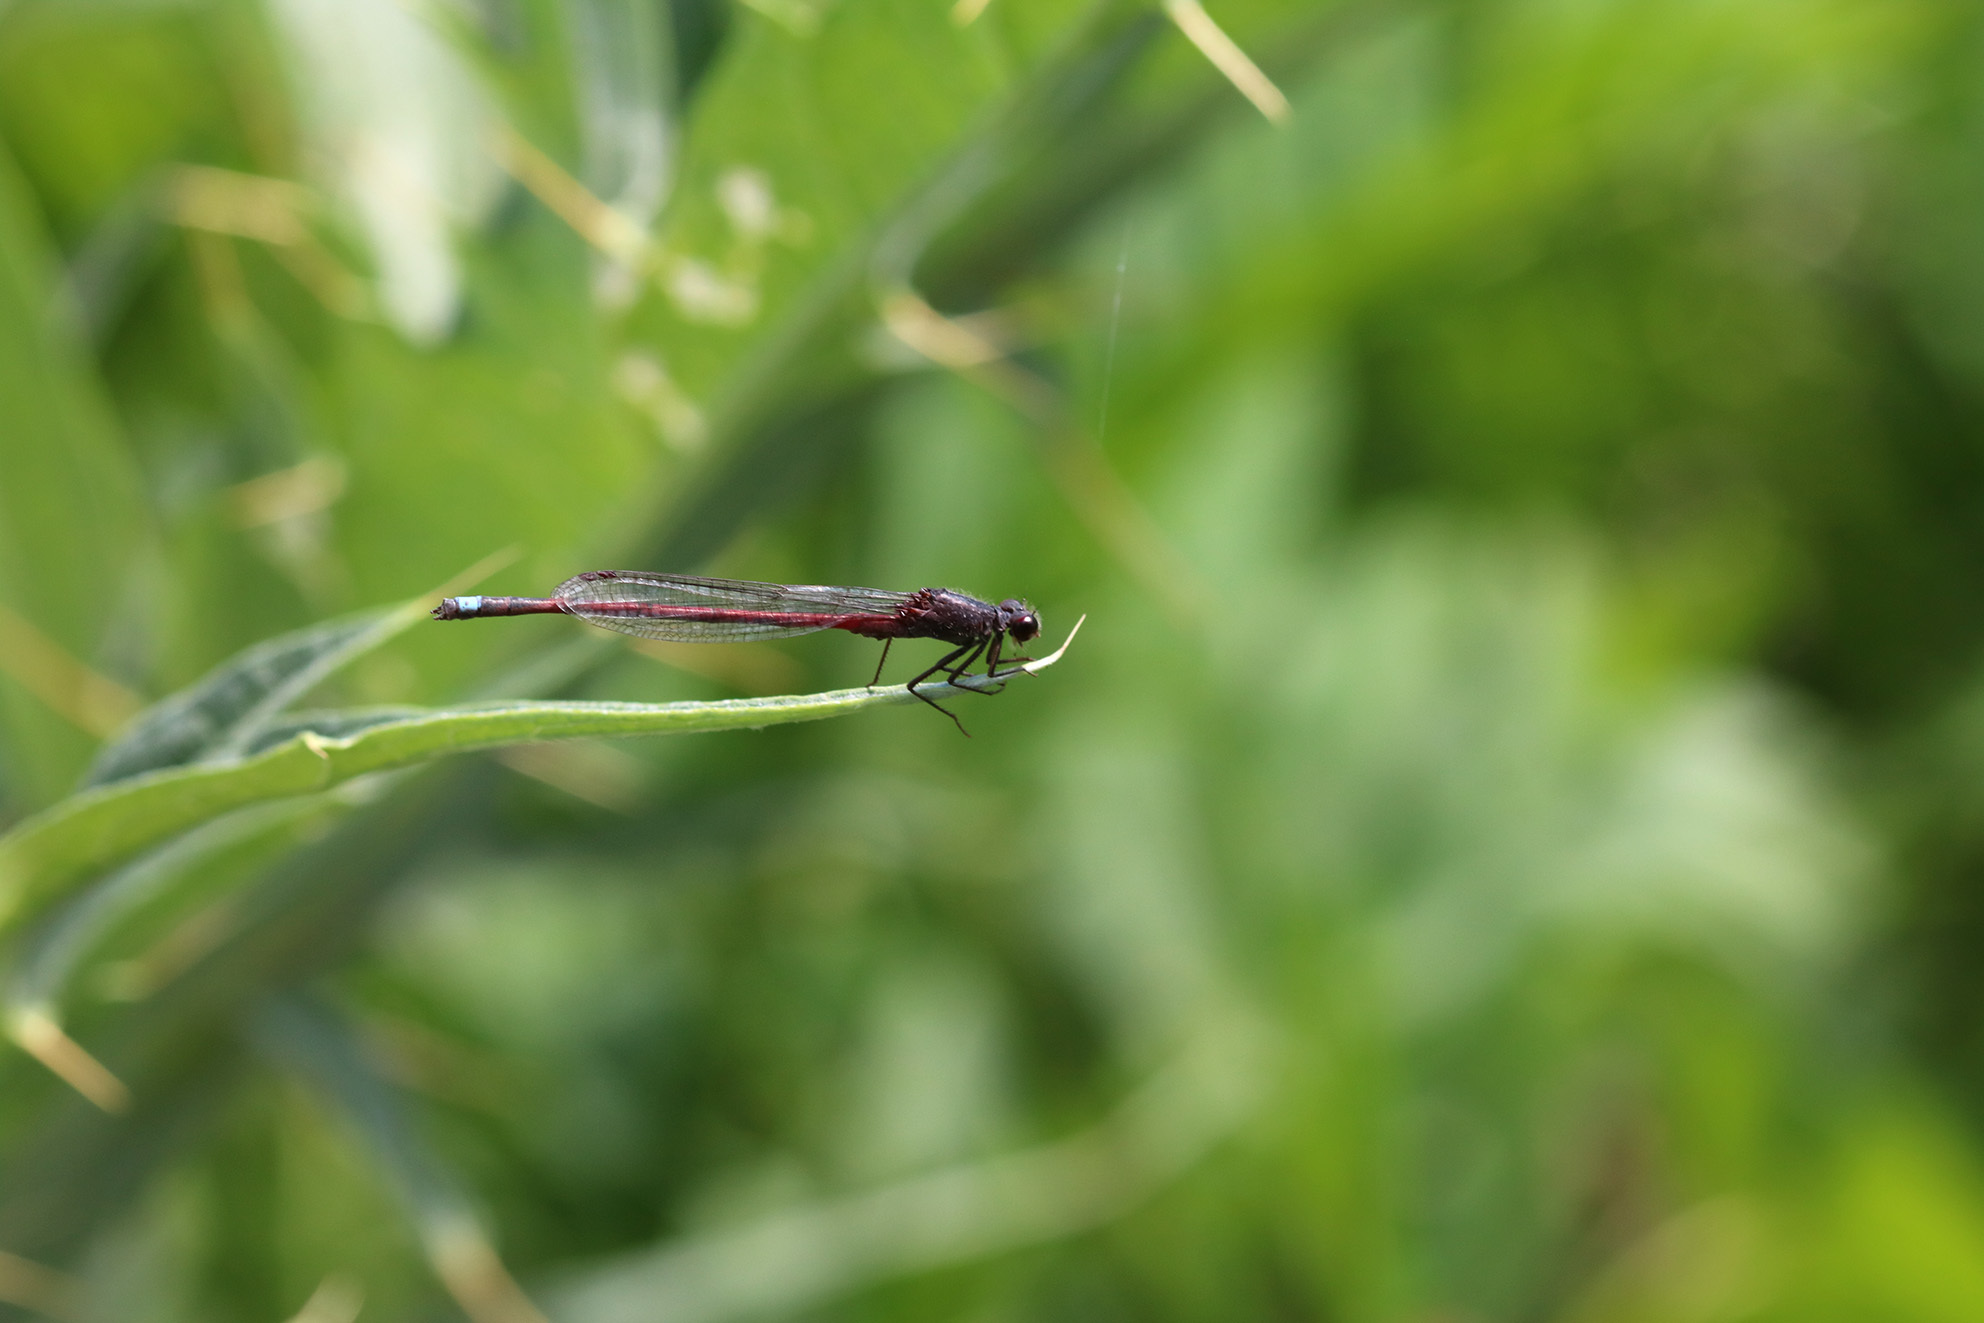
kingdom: Animalia
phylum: Arthropoda
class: Insecta
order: Odonata
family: Coenagrionidae
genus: Oxyagrion
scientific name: Oxyagrion rubidum
